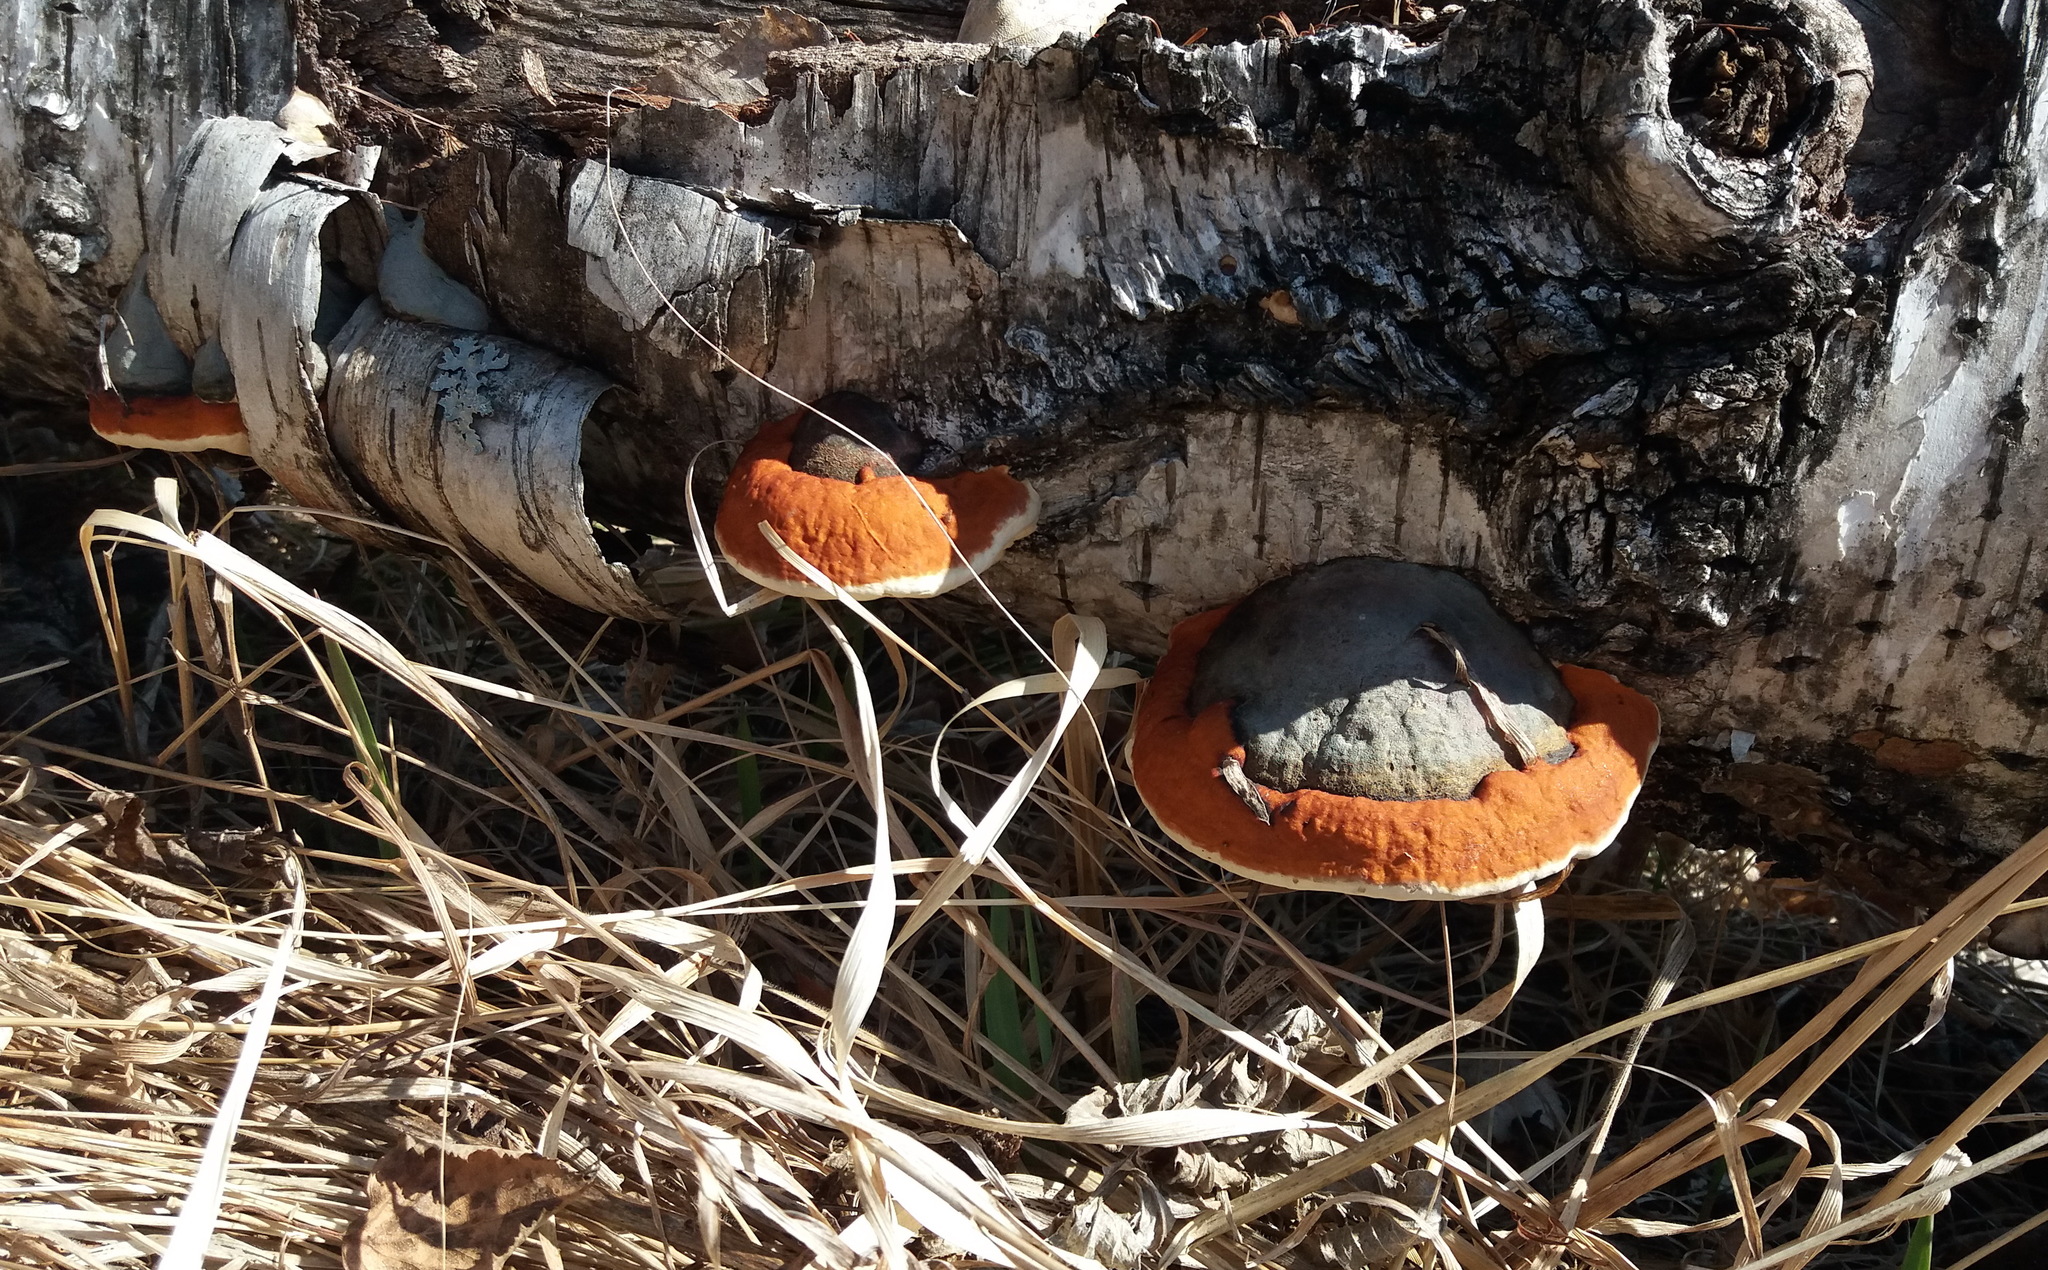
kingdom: Fungi
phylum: Basidiomycota
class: Agaricomycetes
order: Polyporales
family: Fomitopsidaceae
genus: Fomitopsis
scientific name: Fomitopsis pinicola
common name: Red-belted bracket
